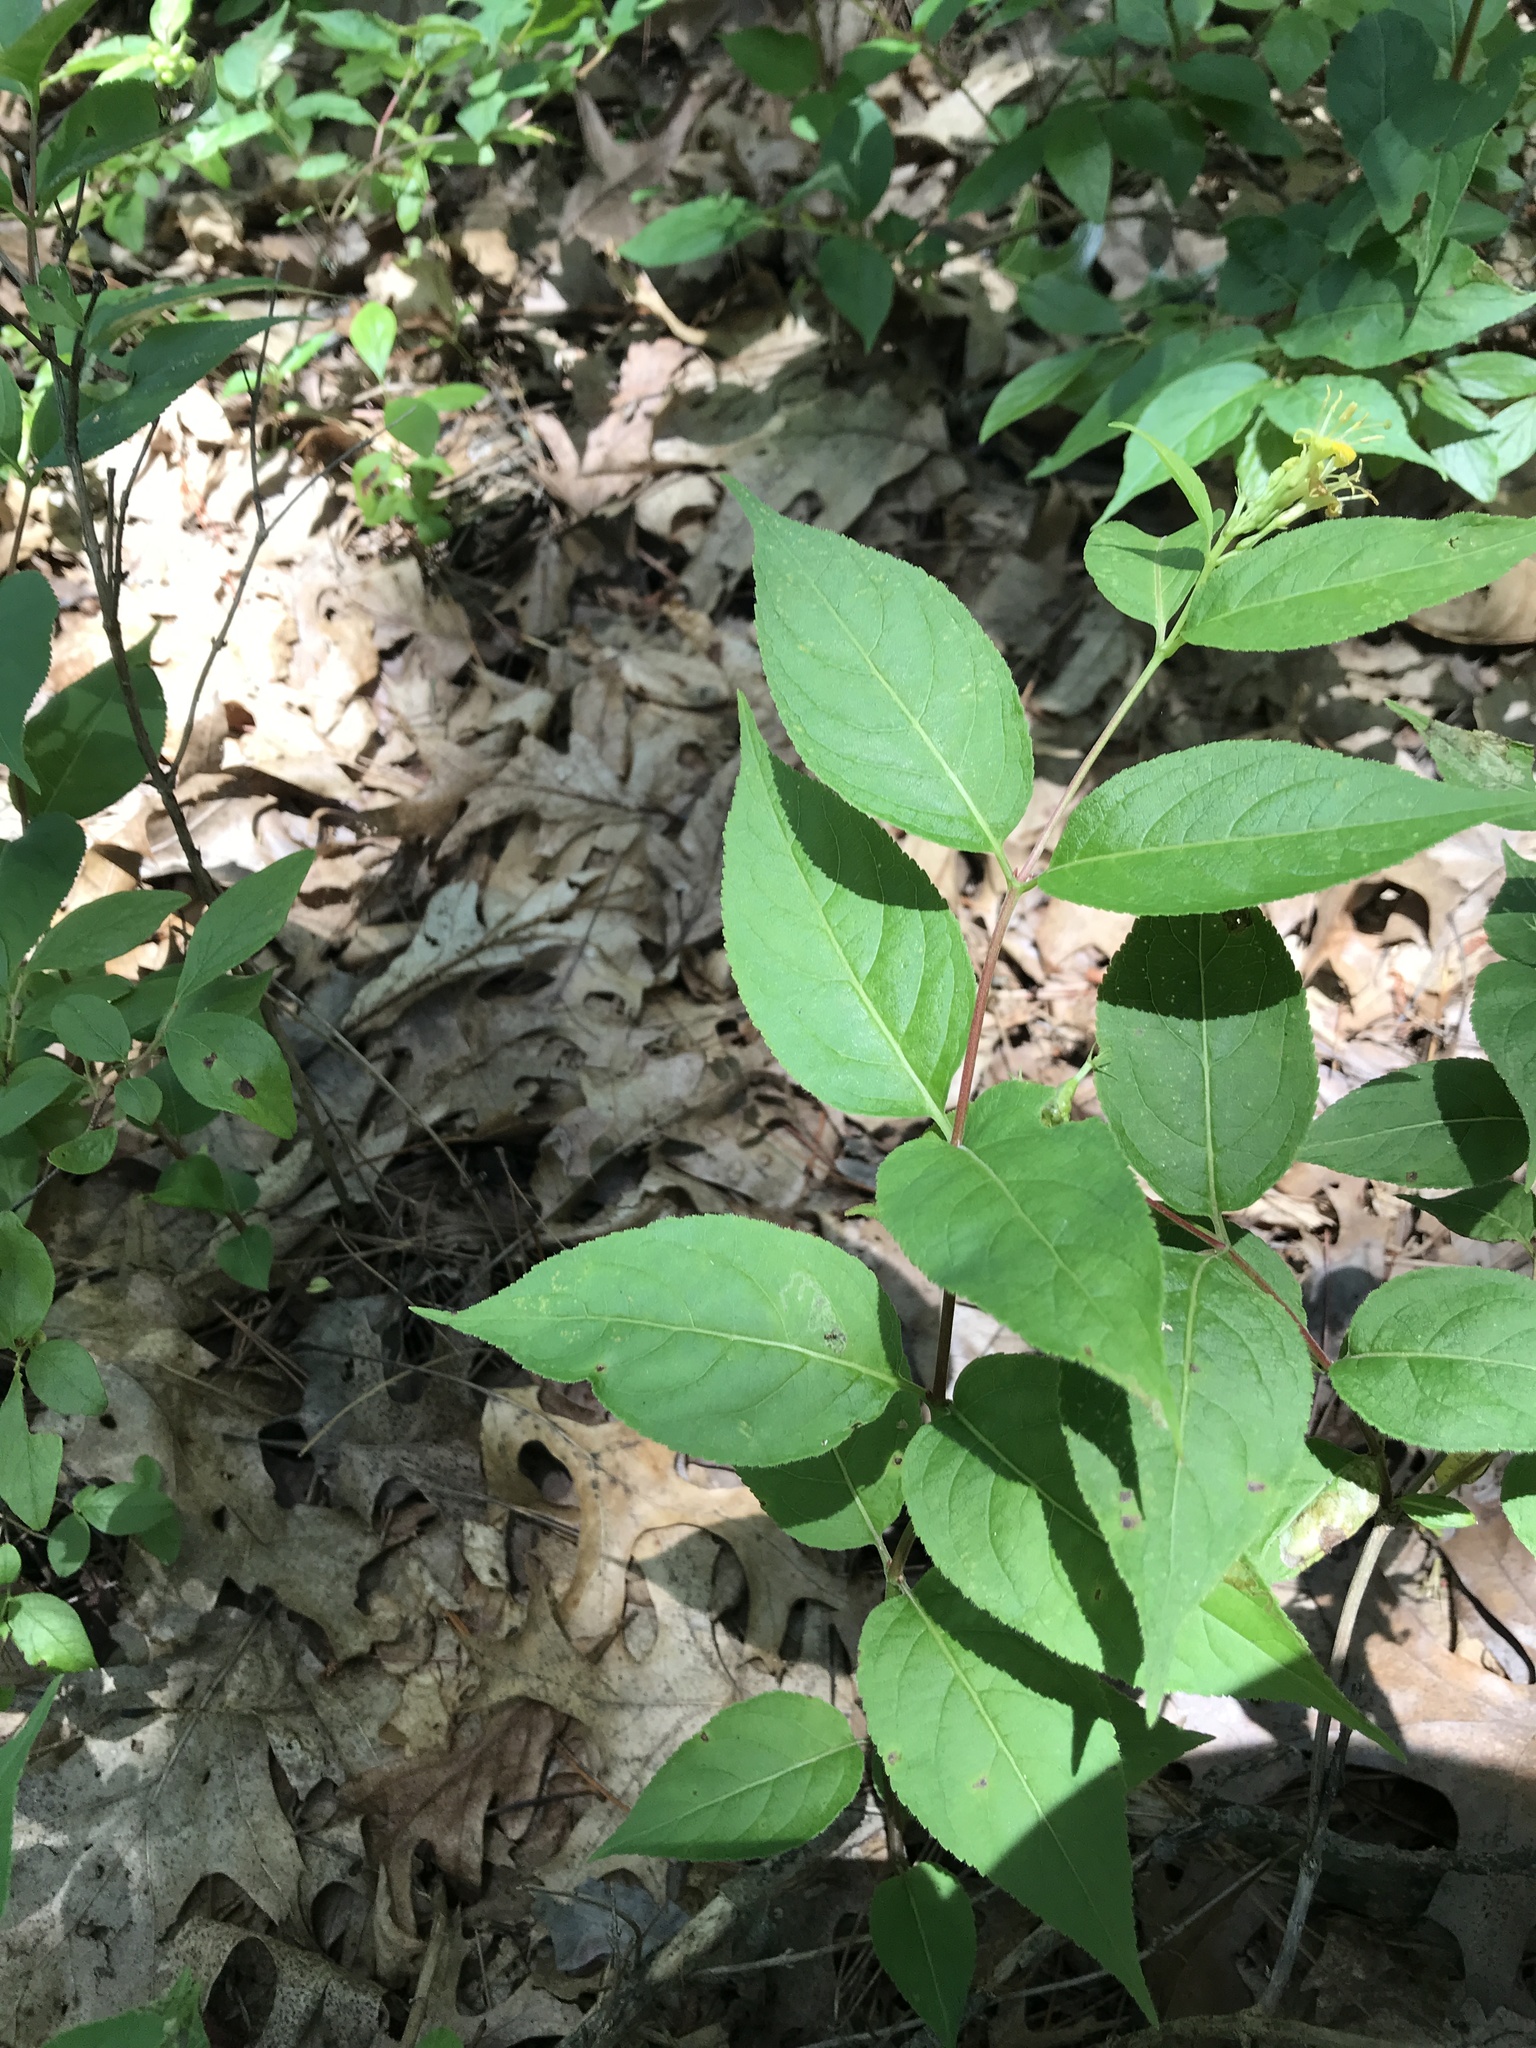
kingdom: Plantae
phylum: Tracheophyta
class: Magnoliopsida
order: Dipsacales
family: Caprifoliaceae
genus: Diervilla
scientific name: Diervilla lonicera
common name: Bush-honeysuckle
